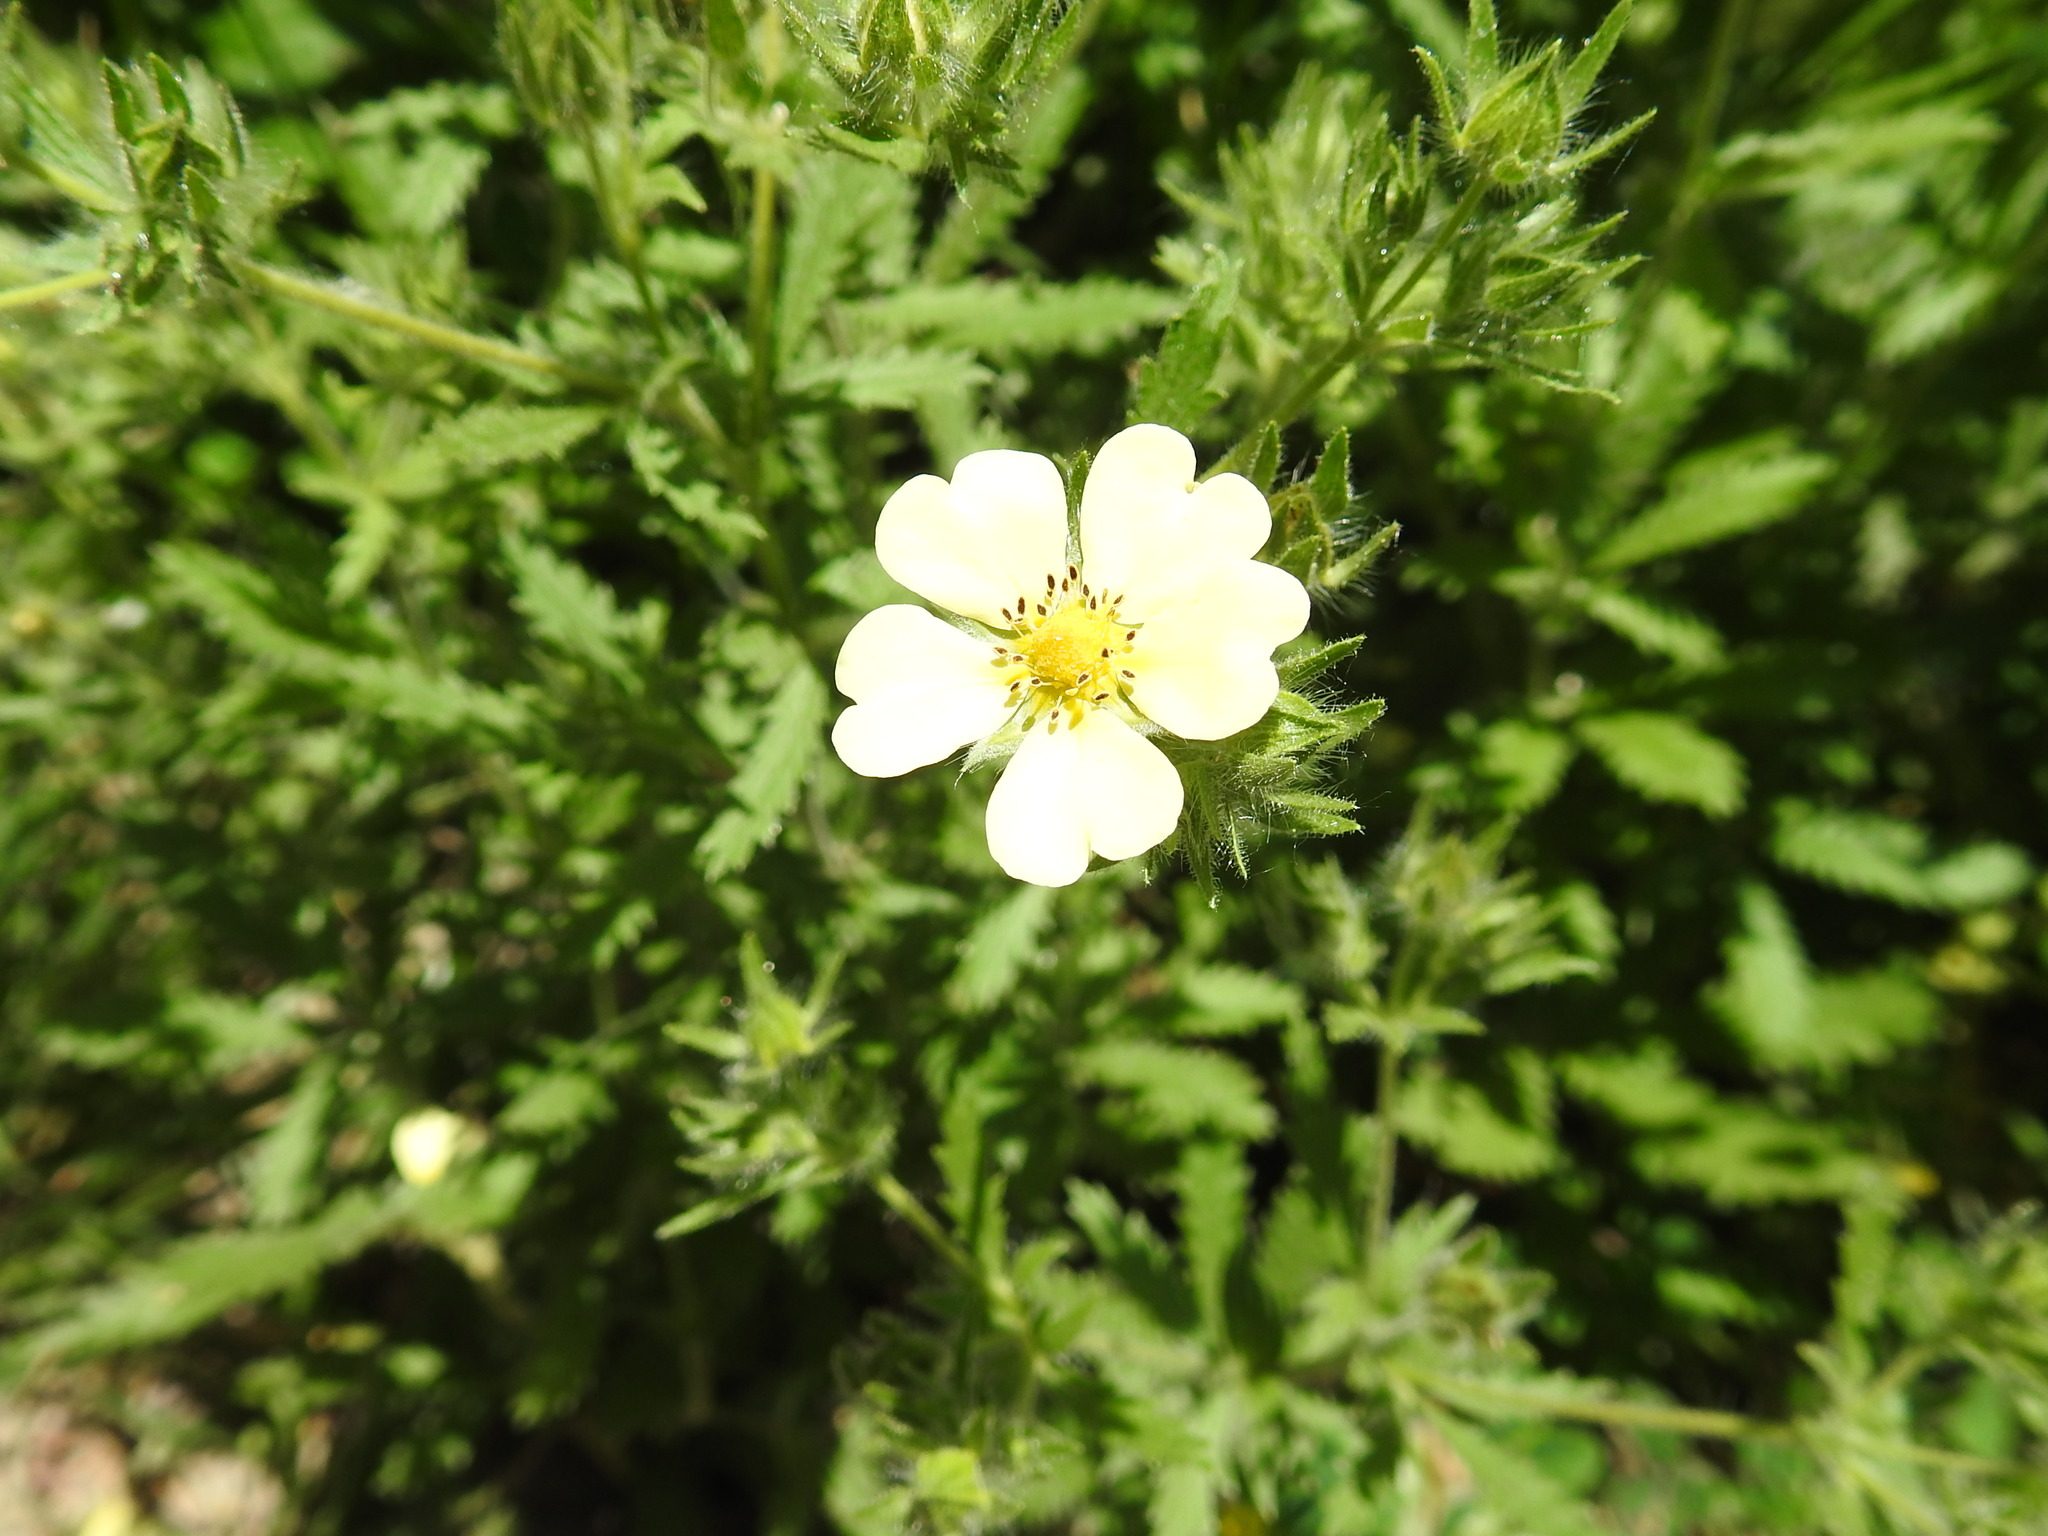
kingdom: Plantae
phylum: Tracheophyta
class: Magnoliopsida
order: Rosales
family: Rosaceae
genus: Potentilla
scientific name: Potentilla recta
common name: Sulphur cinquefoil
